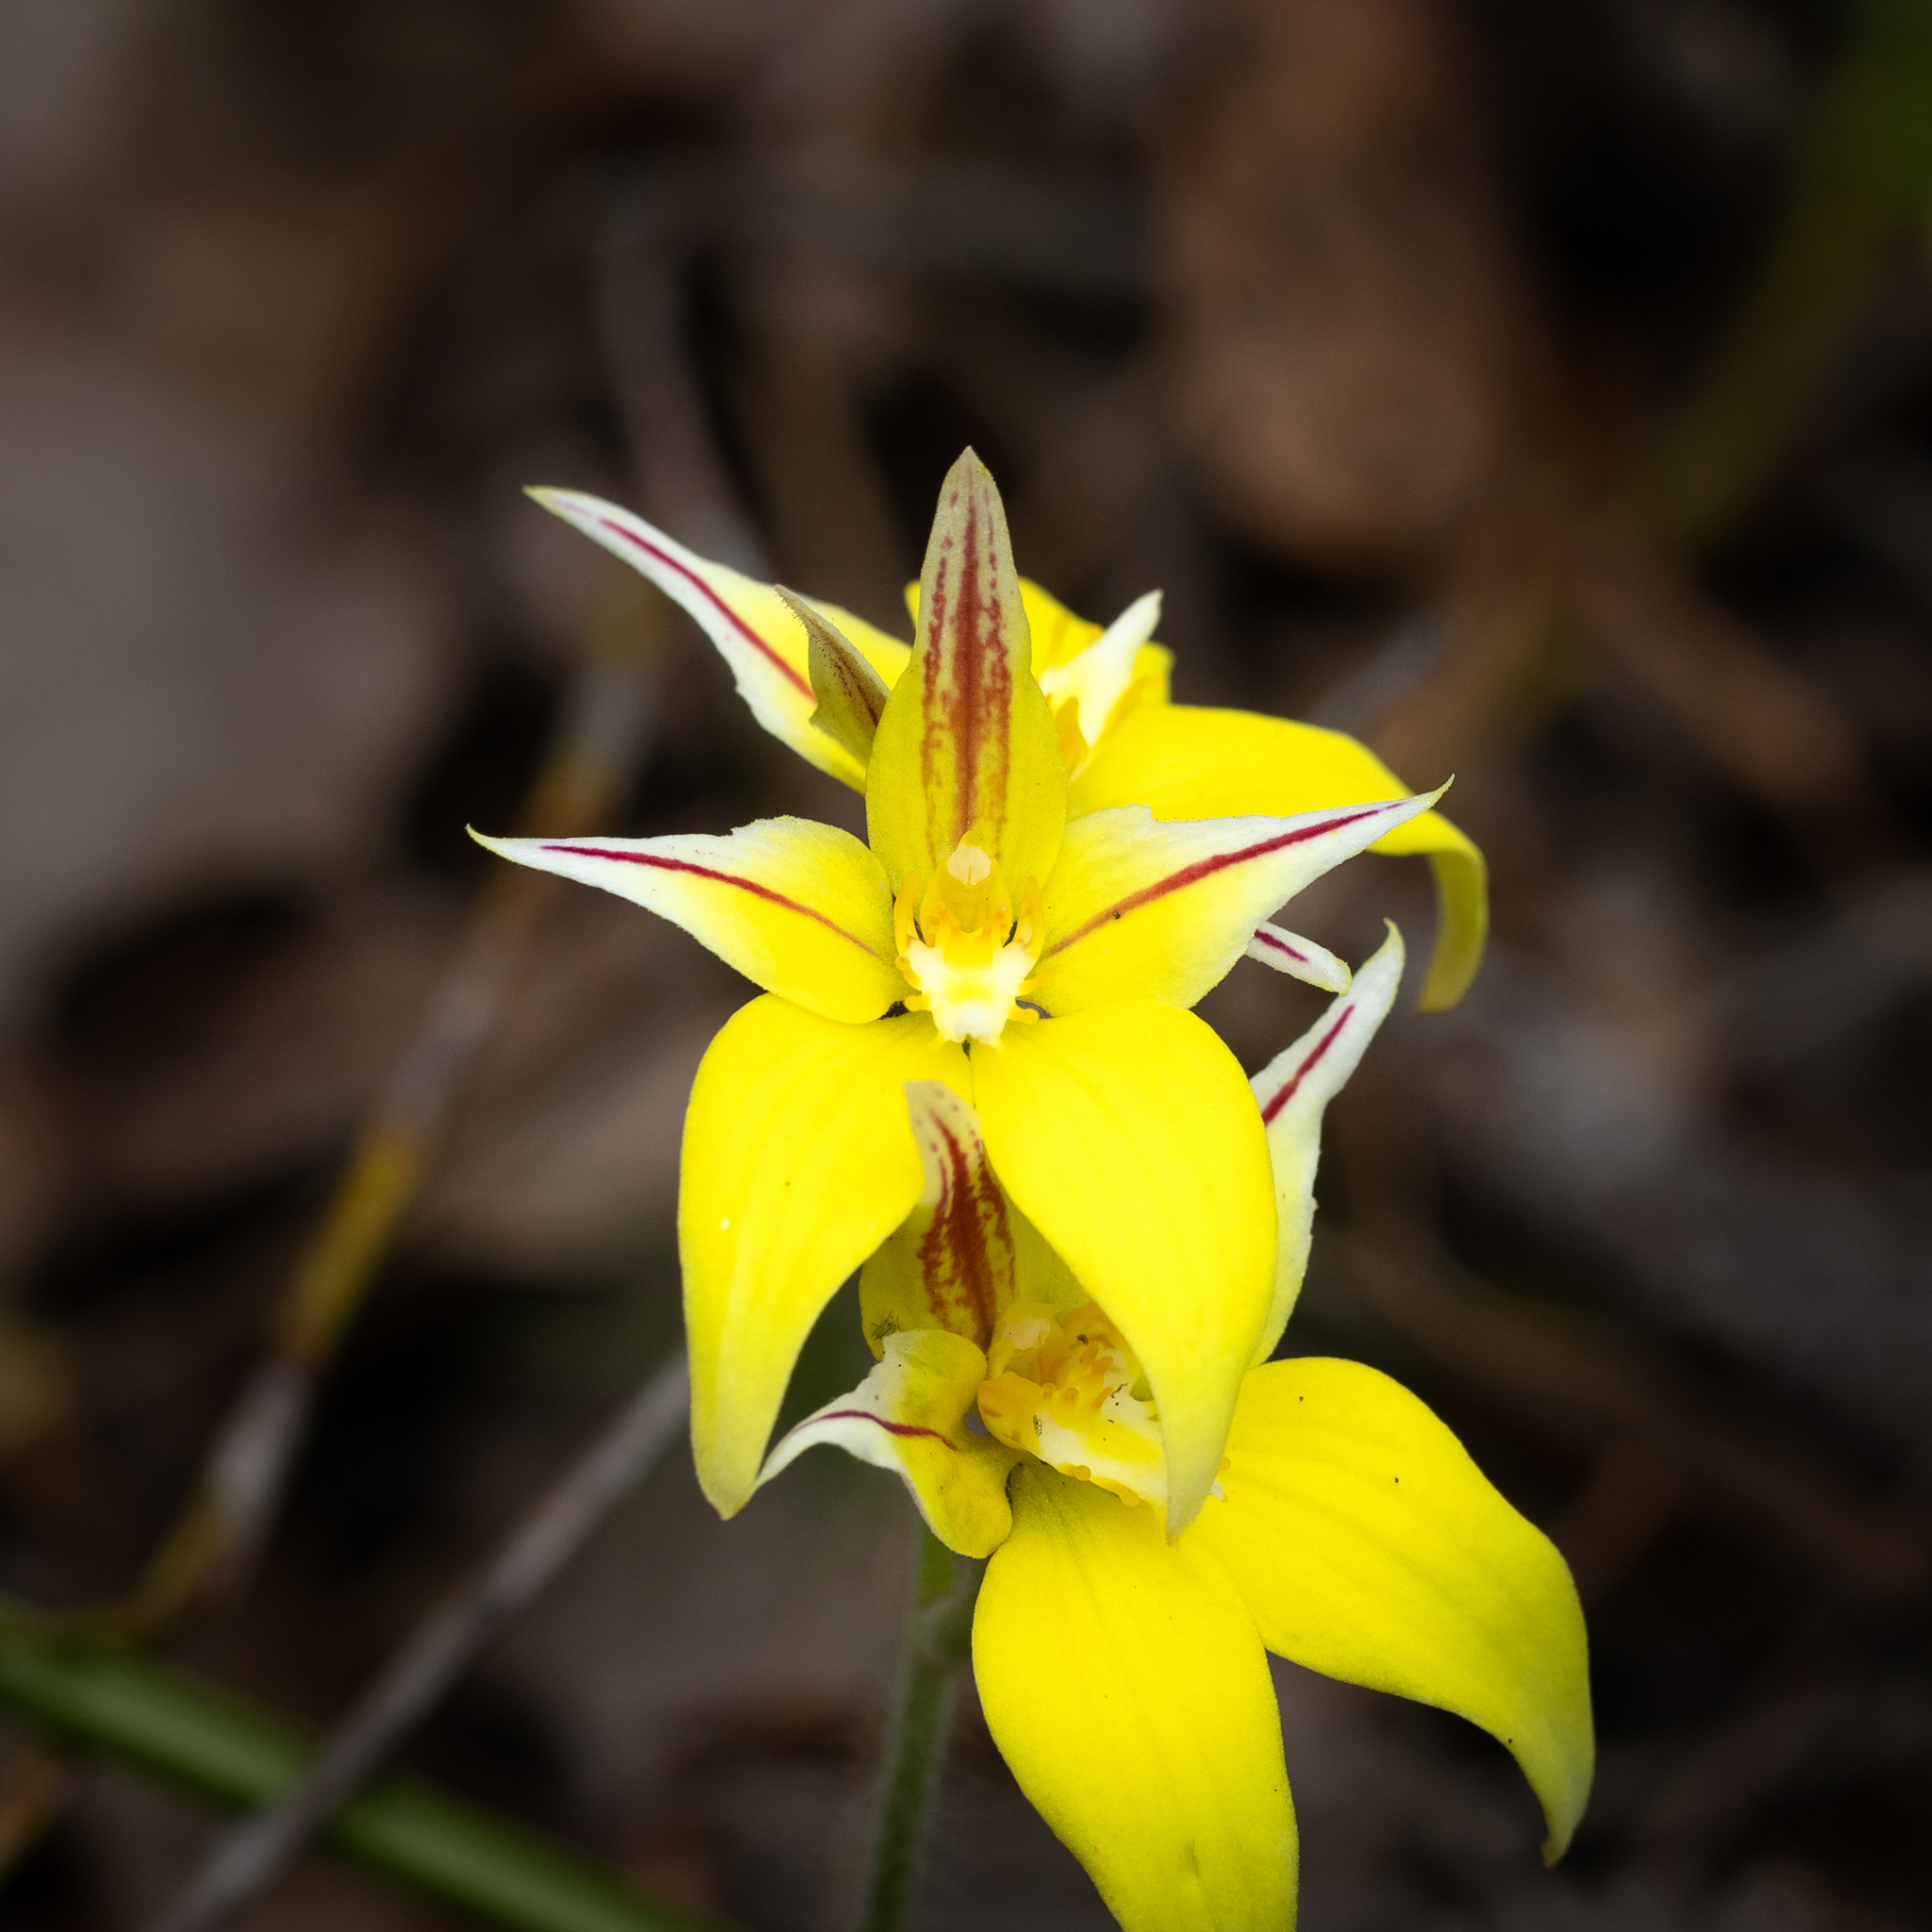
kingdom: Plantae
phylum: Tracheophyta
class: Liliopsida
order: Asparagales
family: Orchidaceae
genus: Caladenia
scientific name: Caladenia flava
